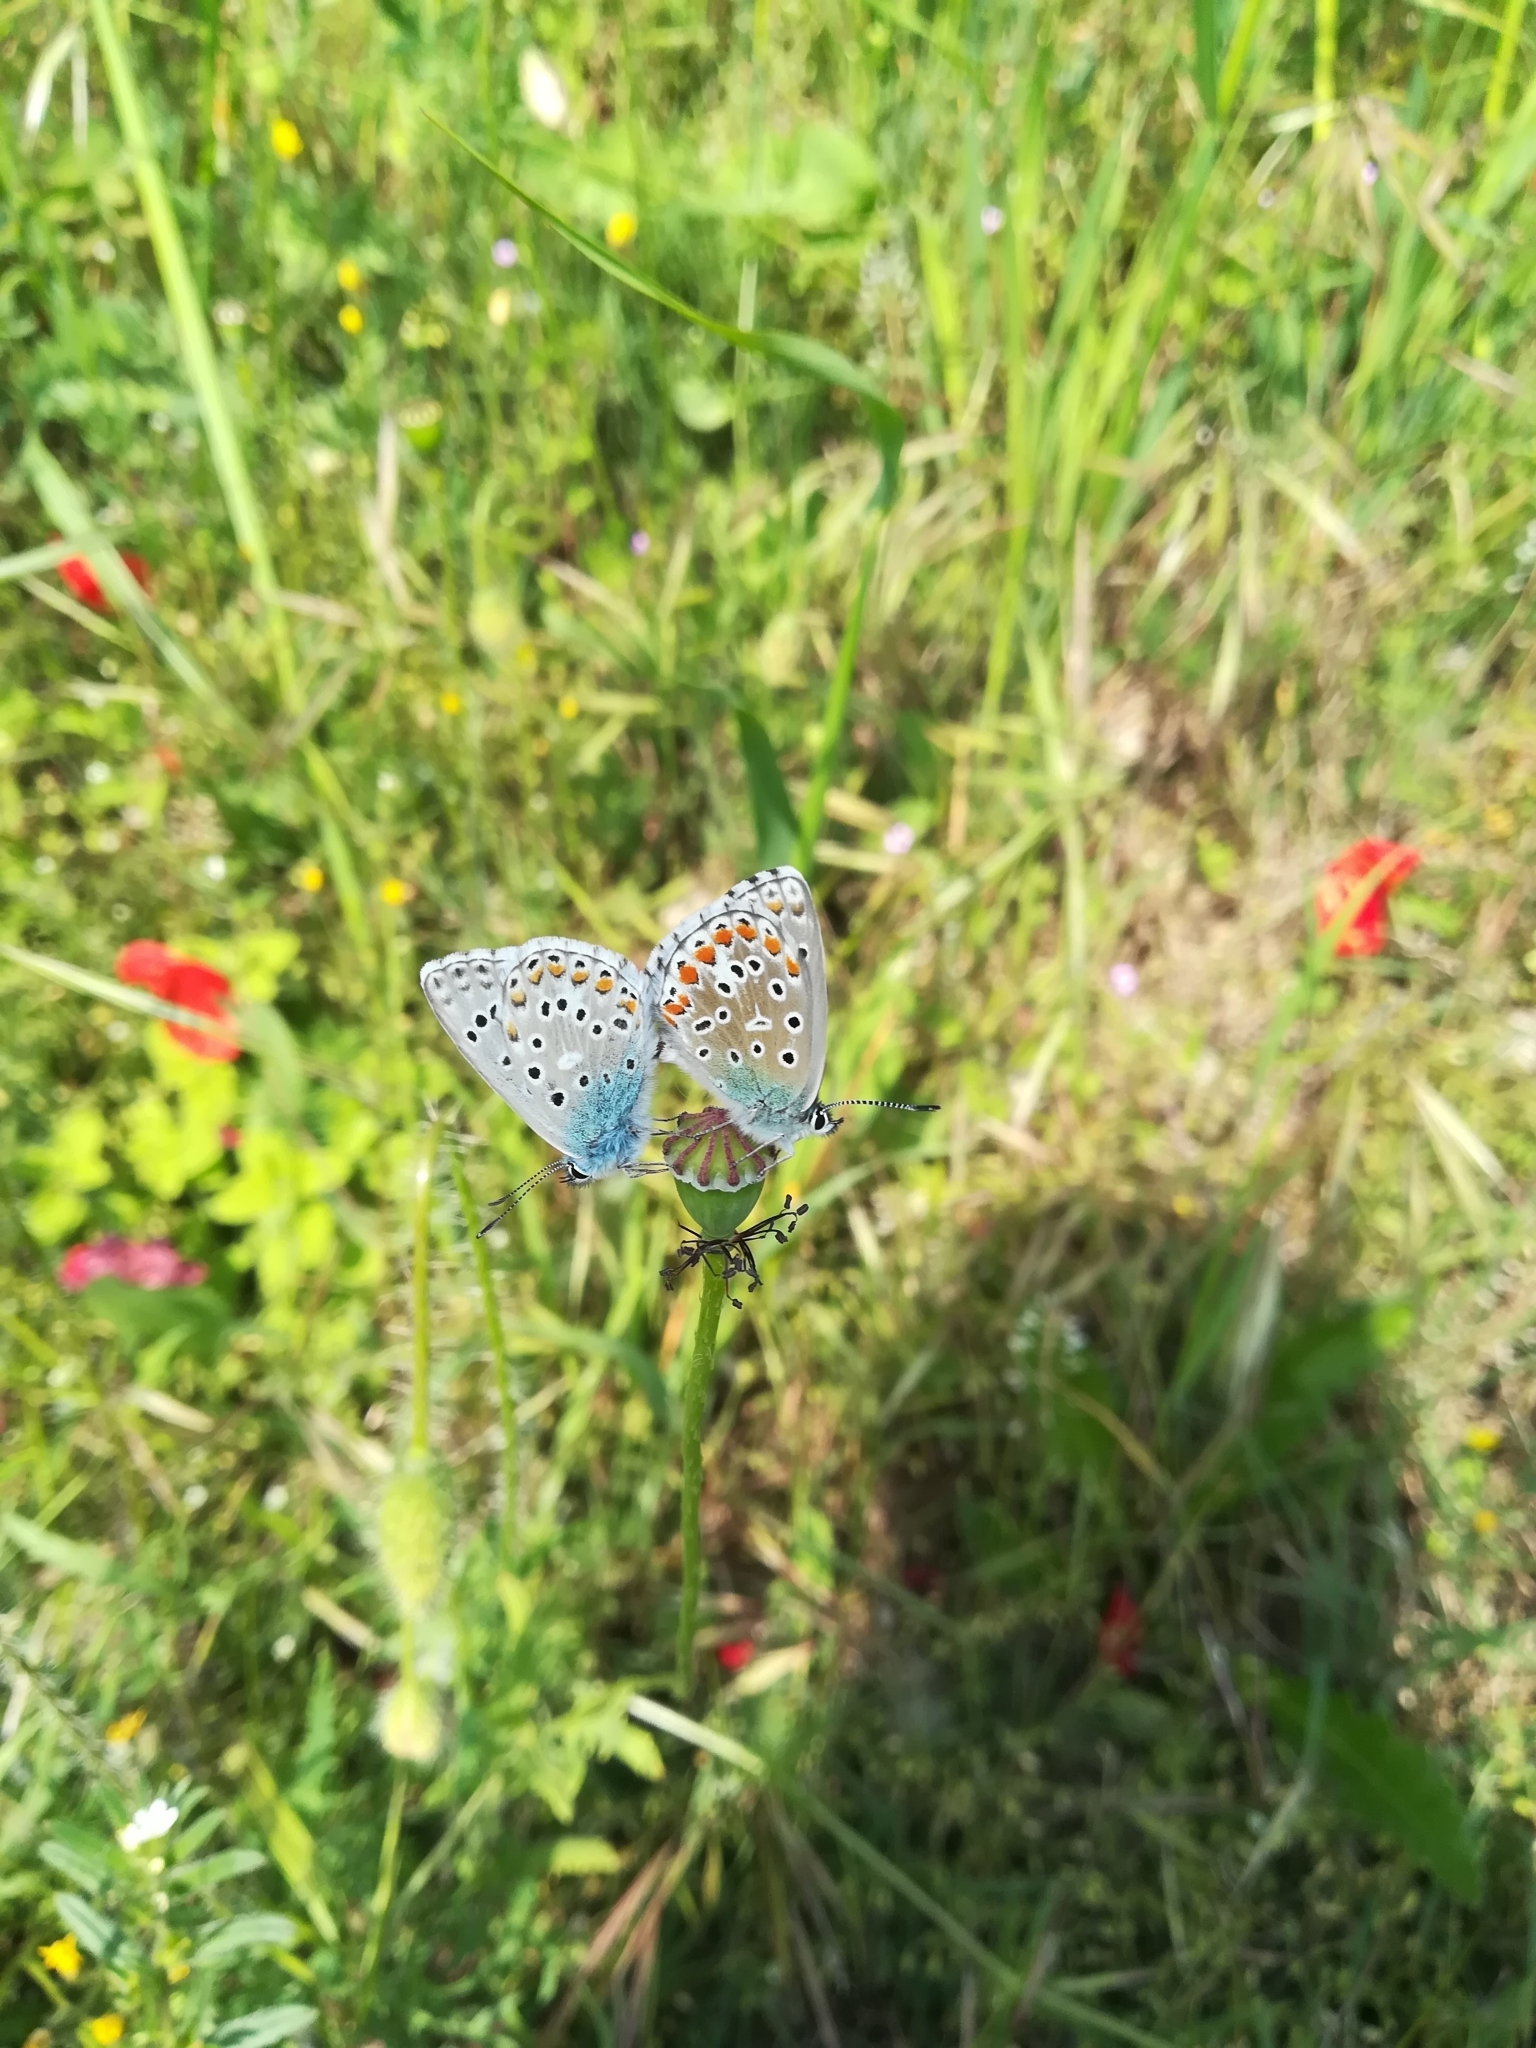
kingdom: Animalia
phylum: Arthropoda
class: Insecta
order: Lepidoptera
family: Lycaenidae
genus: Lysandra
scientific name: Lysandra bellargus
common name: Adonis blue
